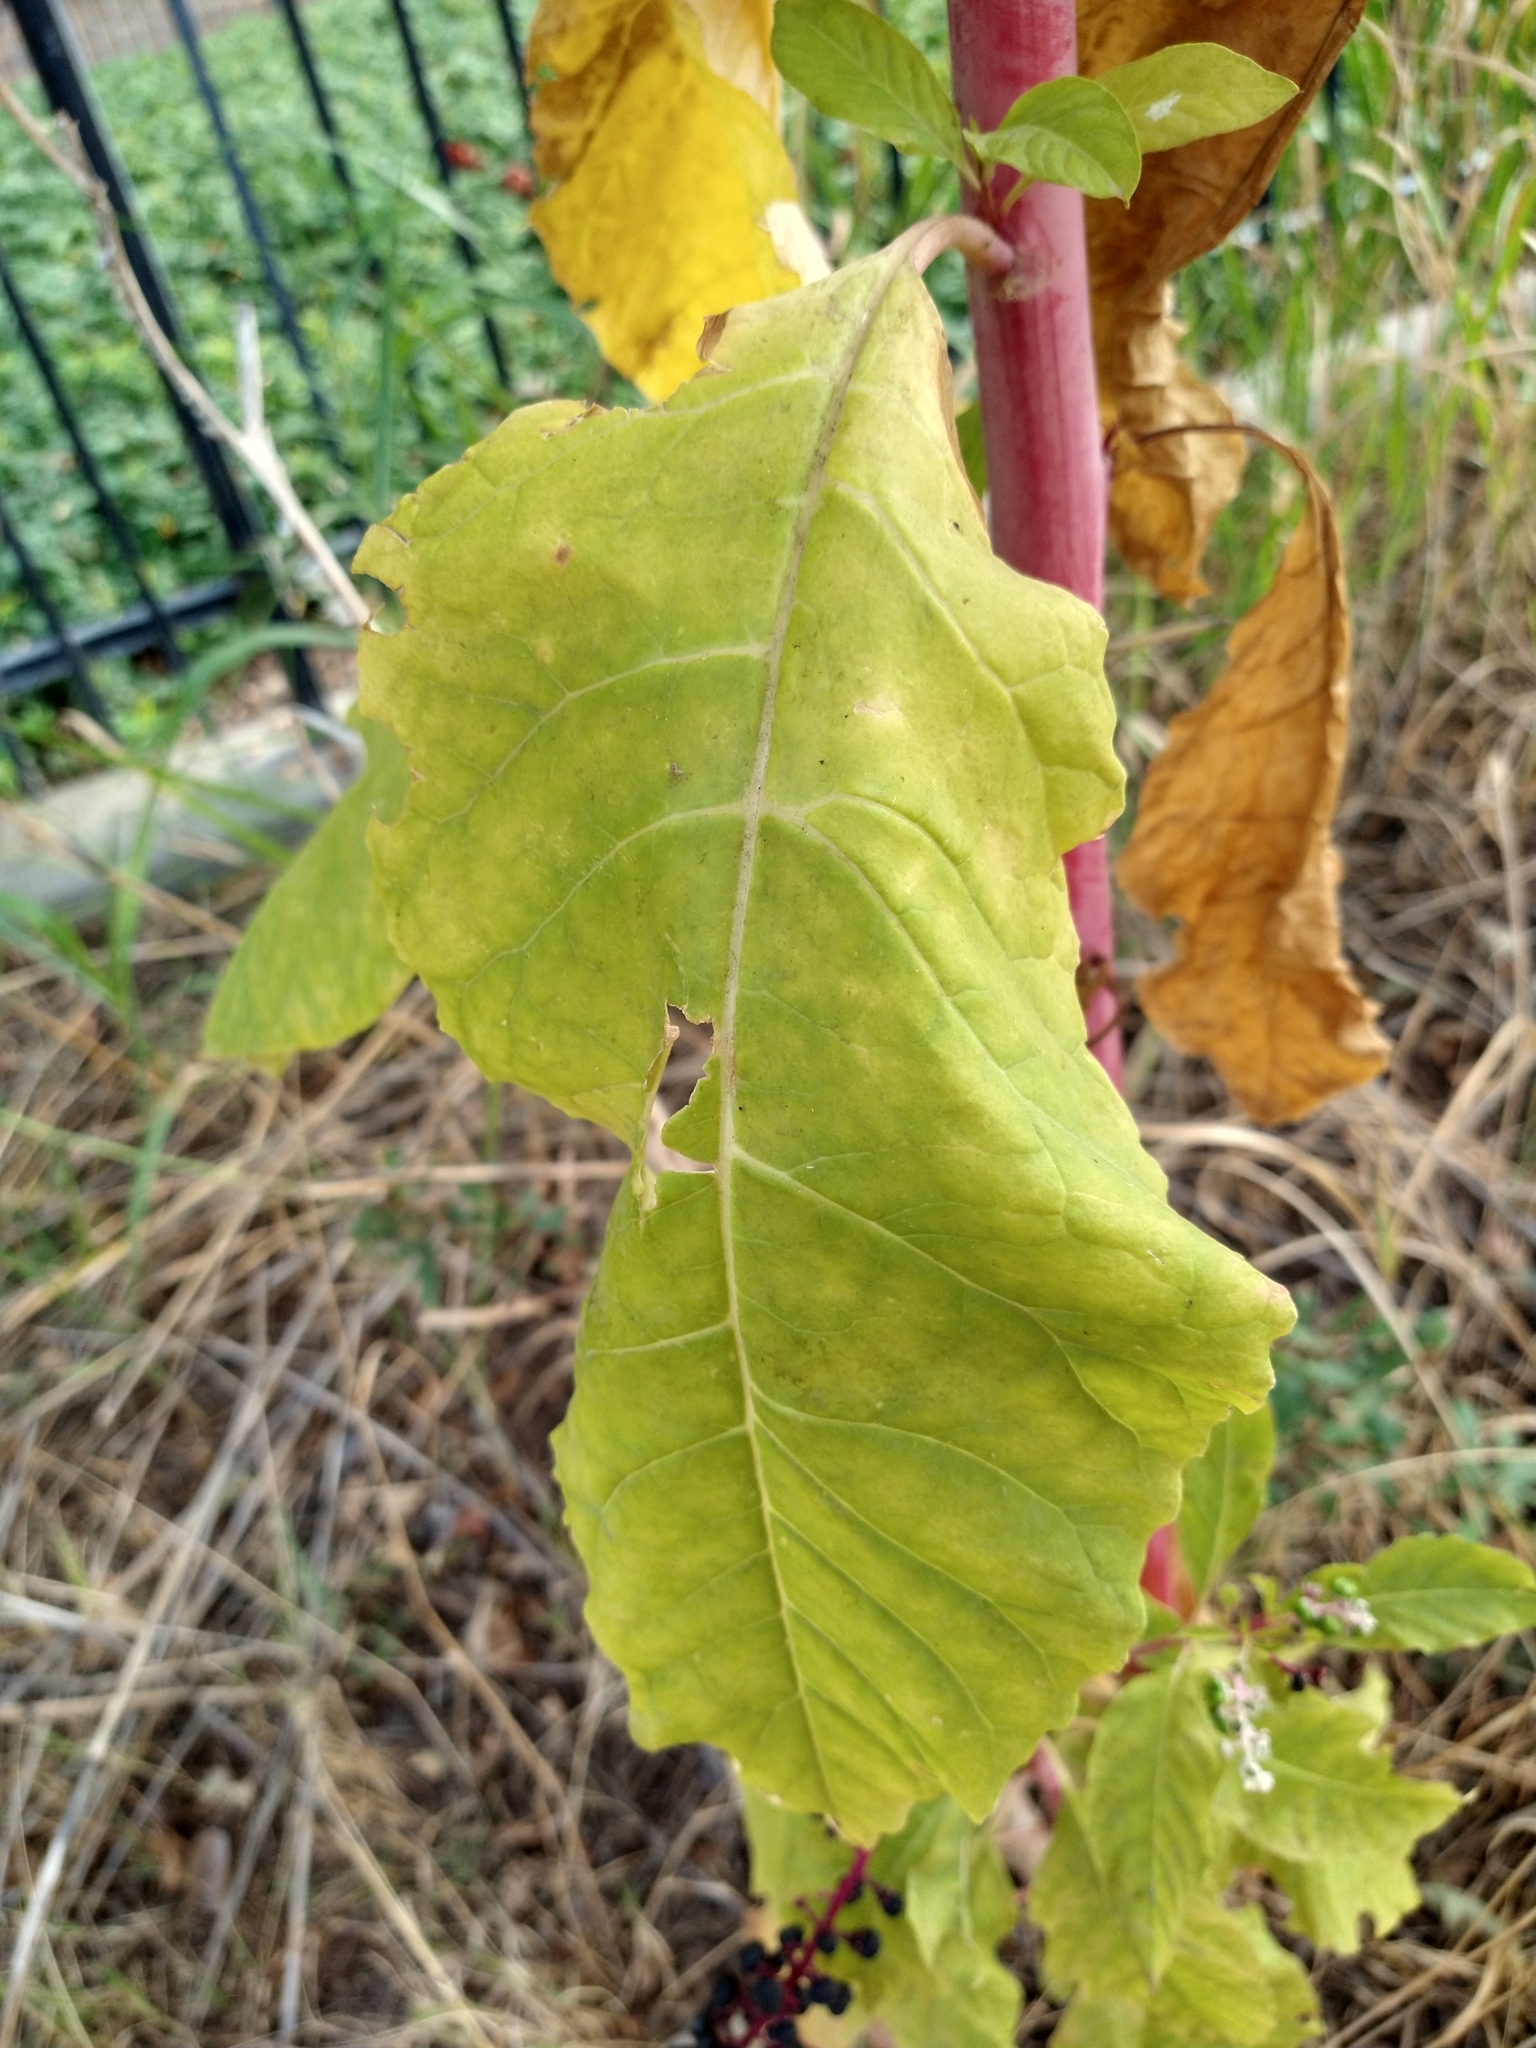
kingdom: Plantae
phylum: Tracheophyta
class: Magnoliopsida
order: Caryophyllales
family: Phytolaccaceae
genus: Phytolacca
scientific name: Phytolacca americana
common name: American pokeweed
